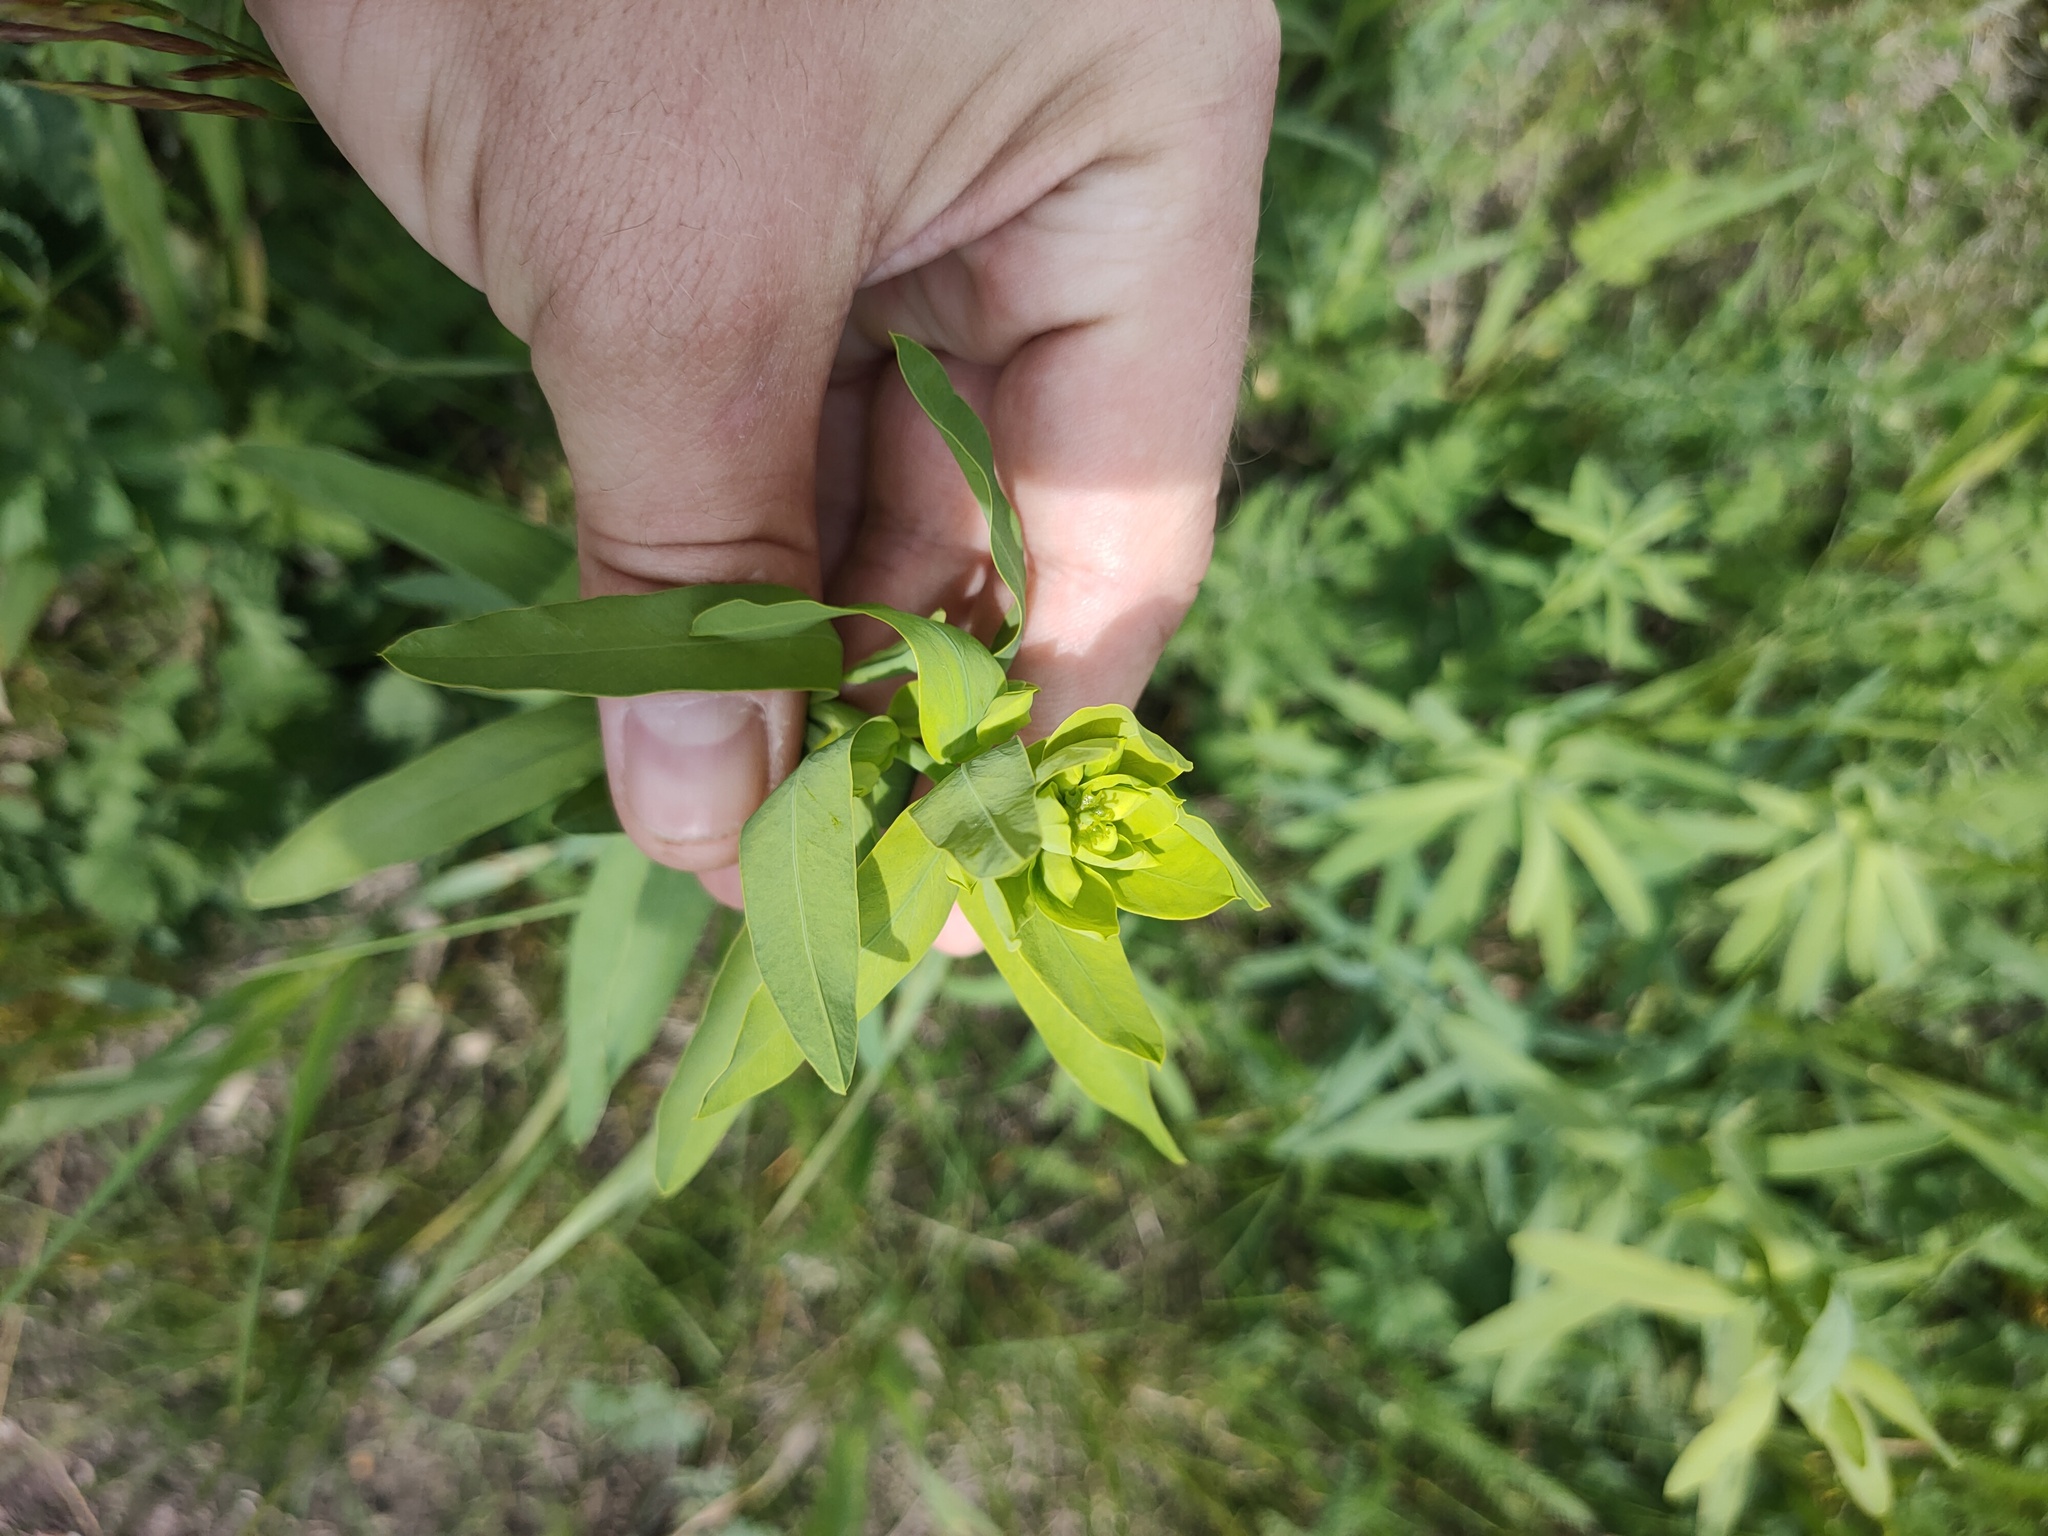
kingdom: Plantae
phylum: Tracheophyta
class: Magnoliopsida
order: Malpighiales
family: Euphorbiaceae
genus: Euphorbia
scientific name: Euphorbia virgata
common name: Leafy spurge
